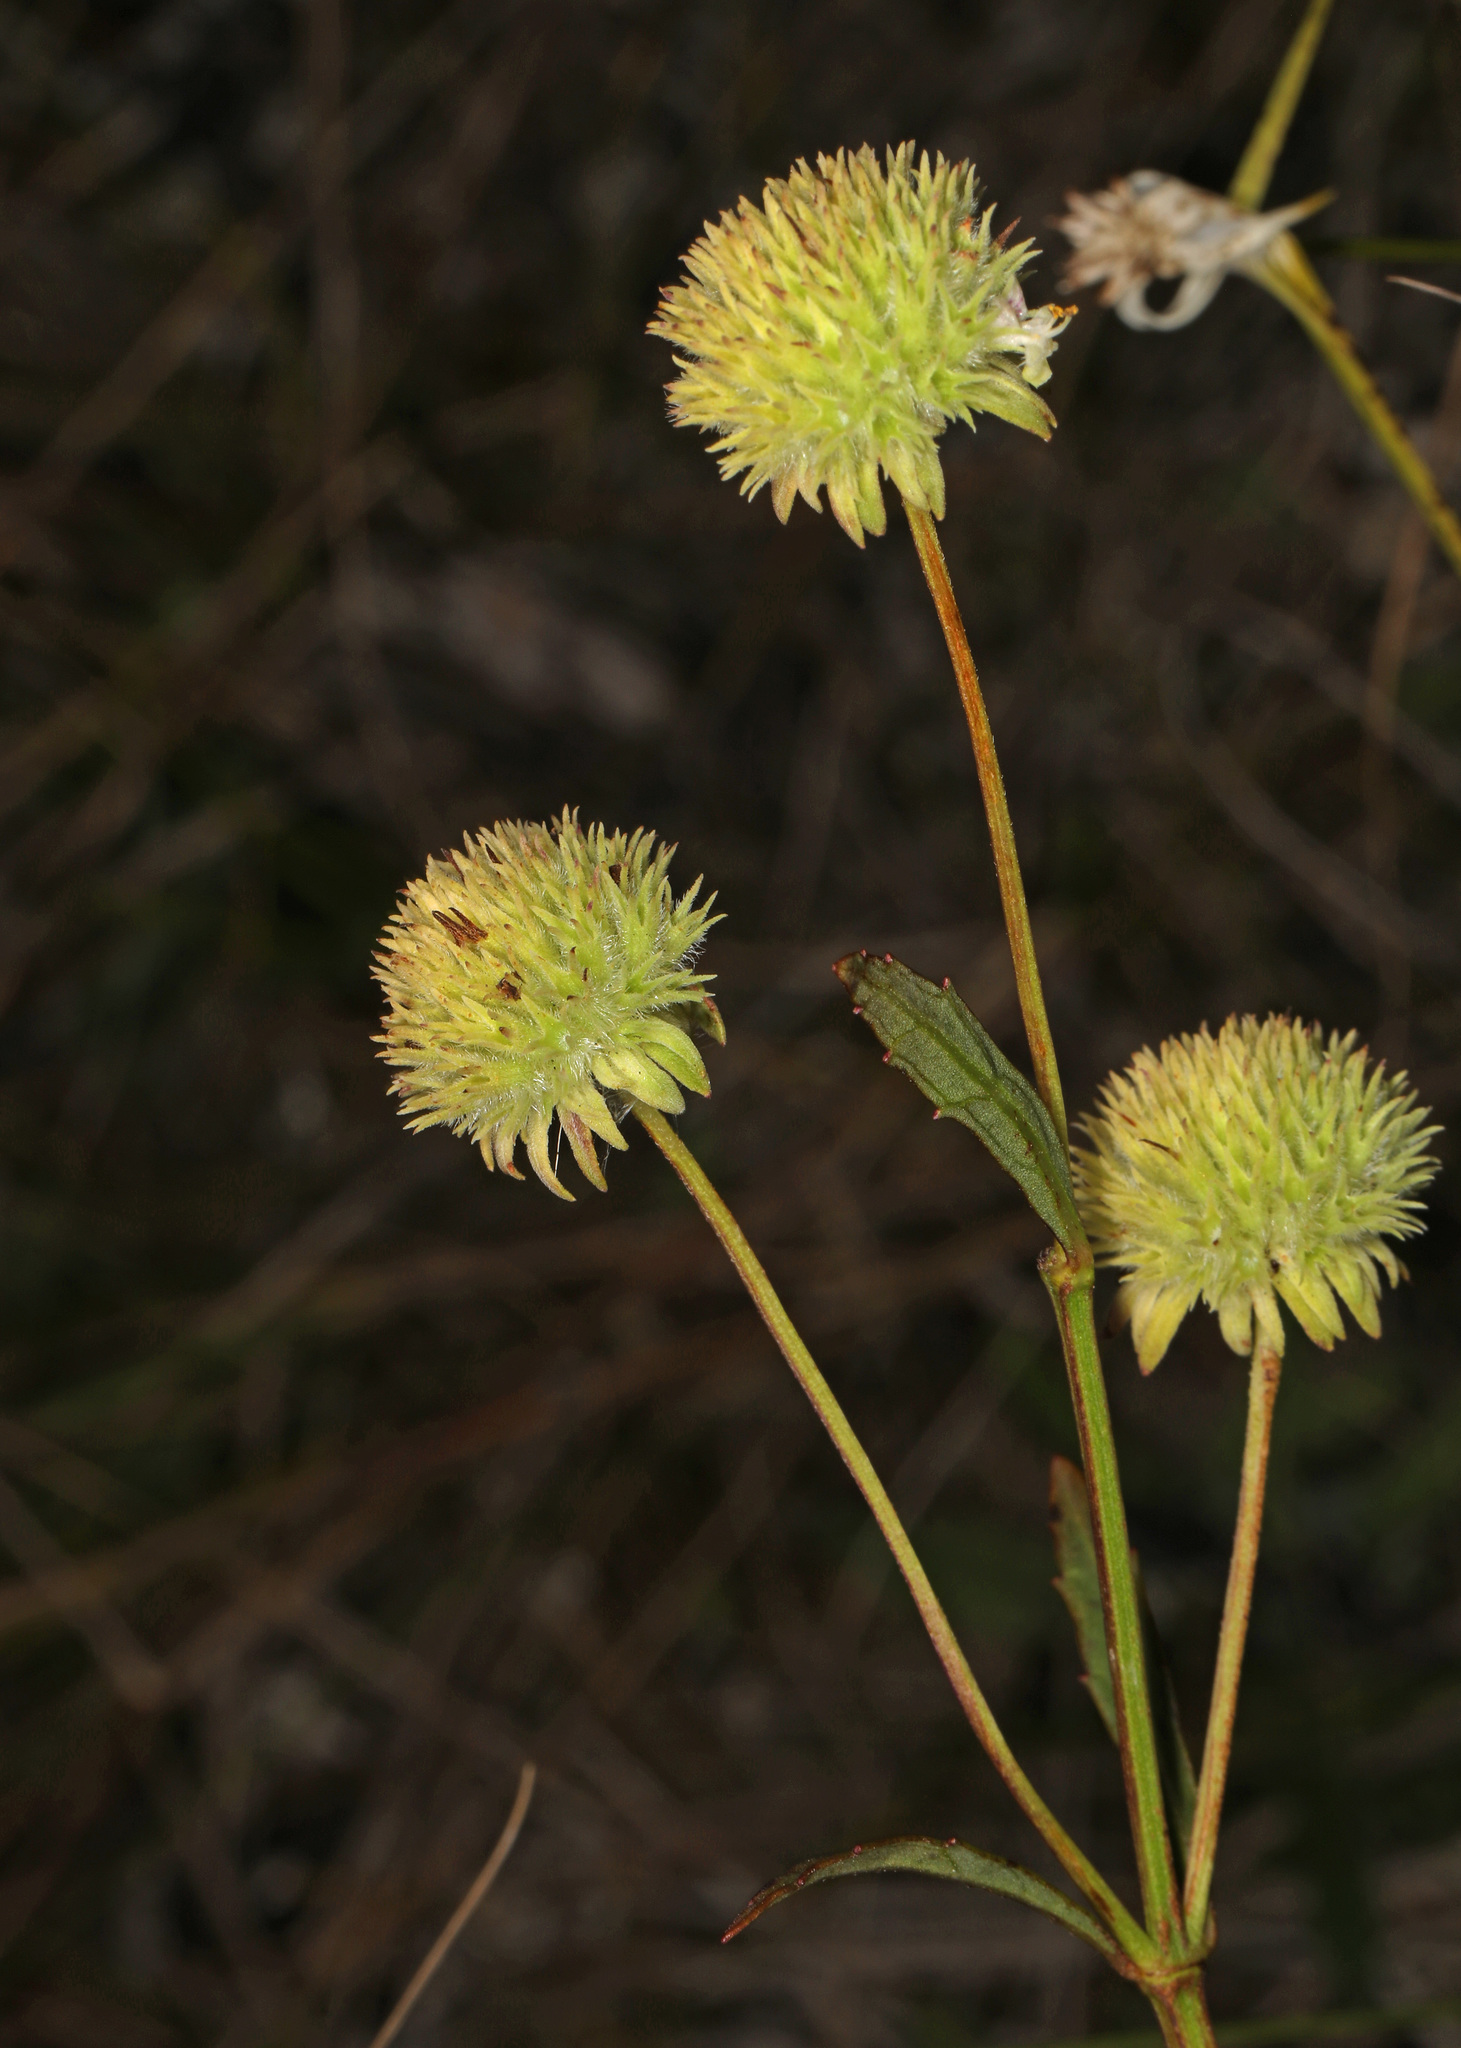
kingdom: Plantae
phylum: Tracheophyta
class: Magnoliopsida
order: Lamiales
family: Lamiaceae
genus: Hyptis
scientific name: Hyptis alata
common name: Cluster bush-mint
